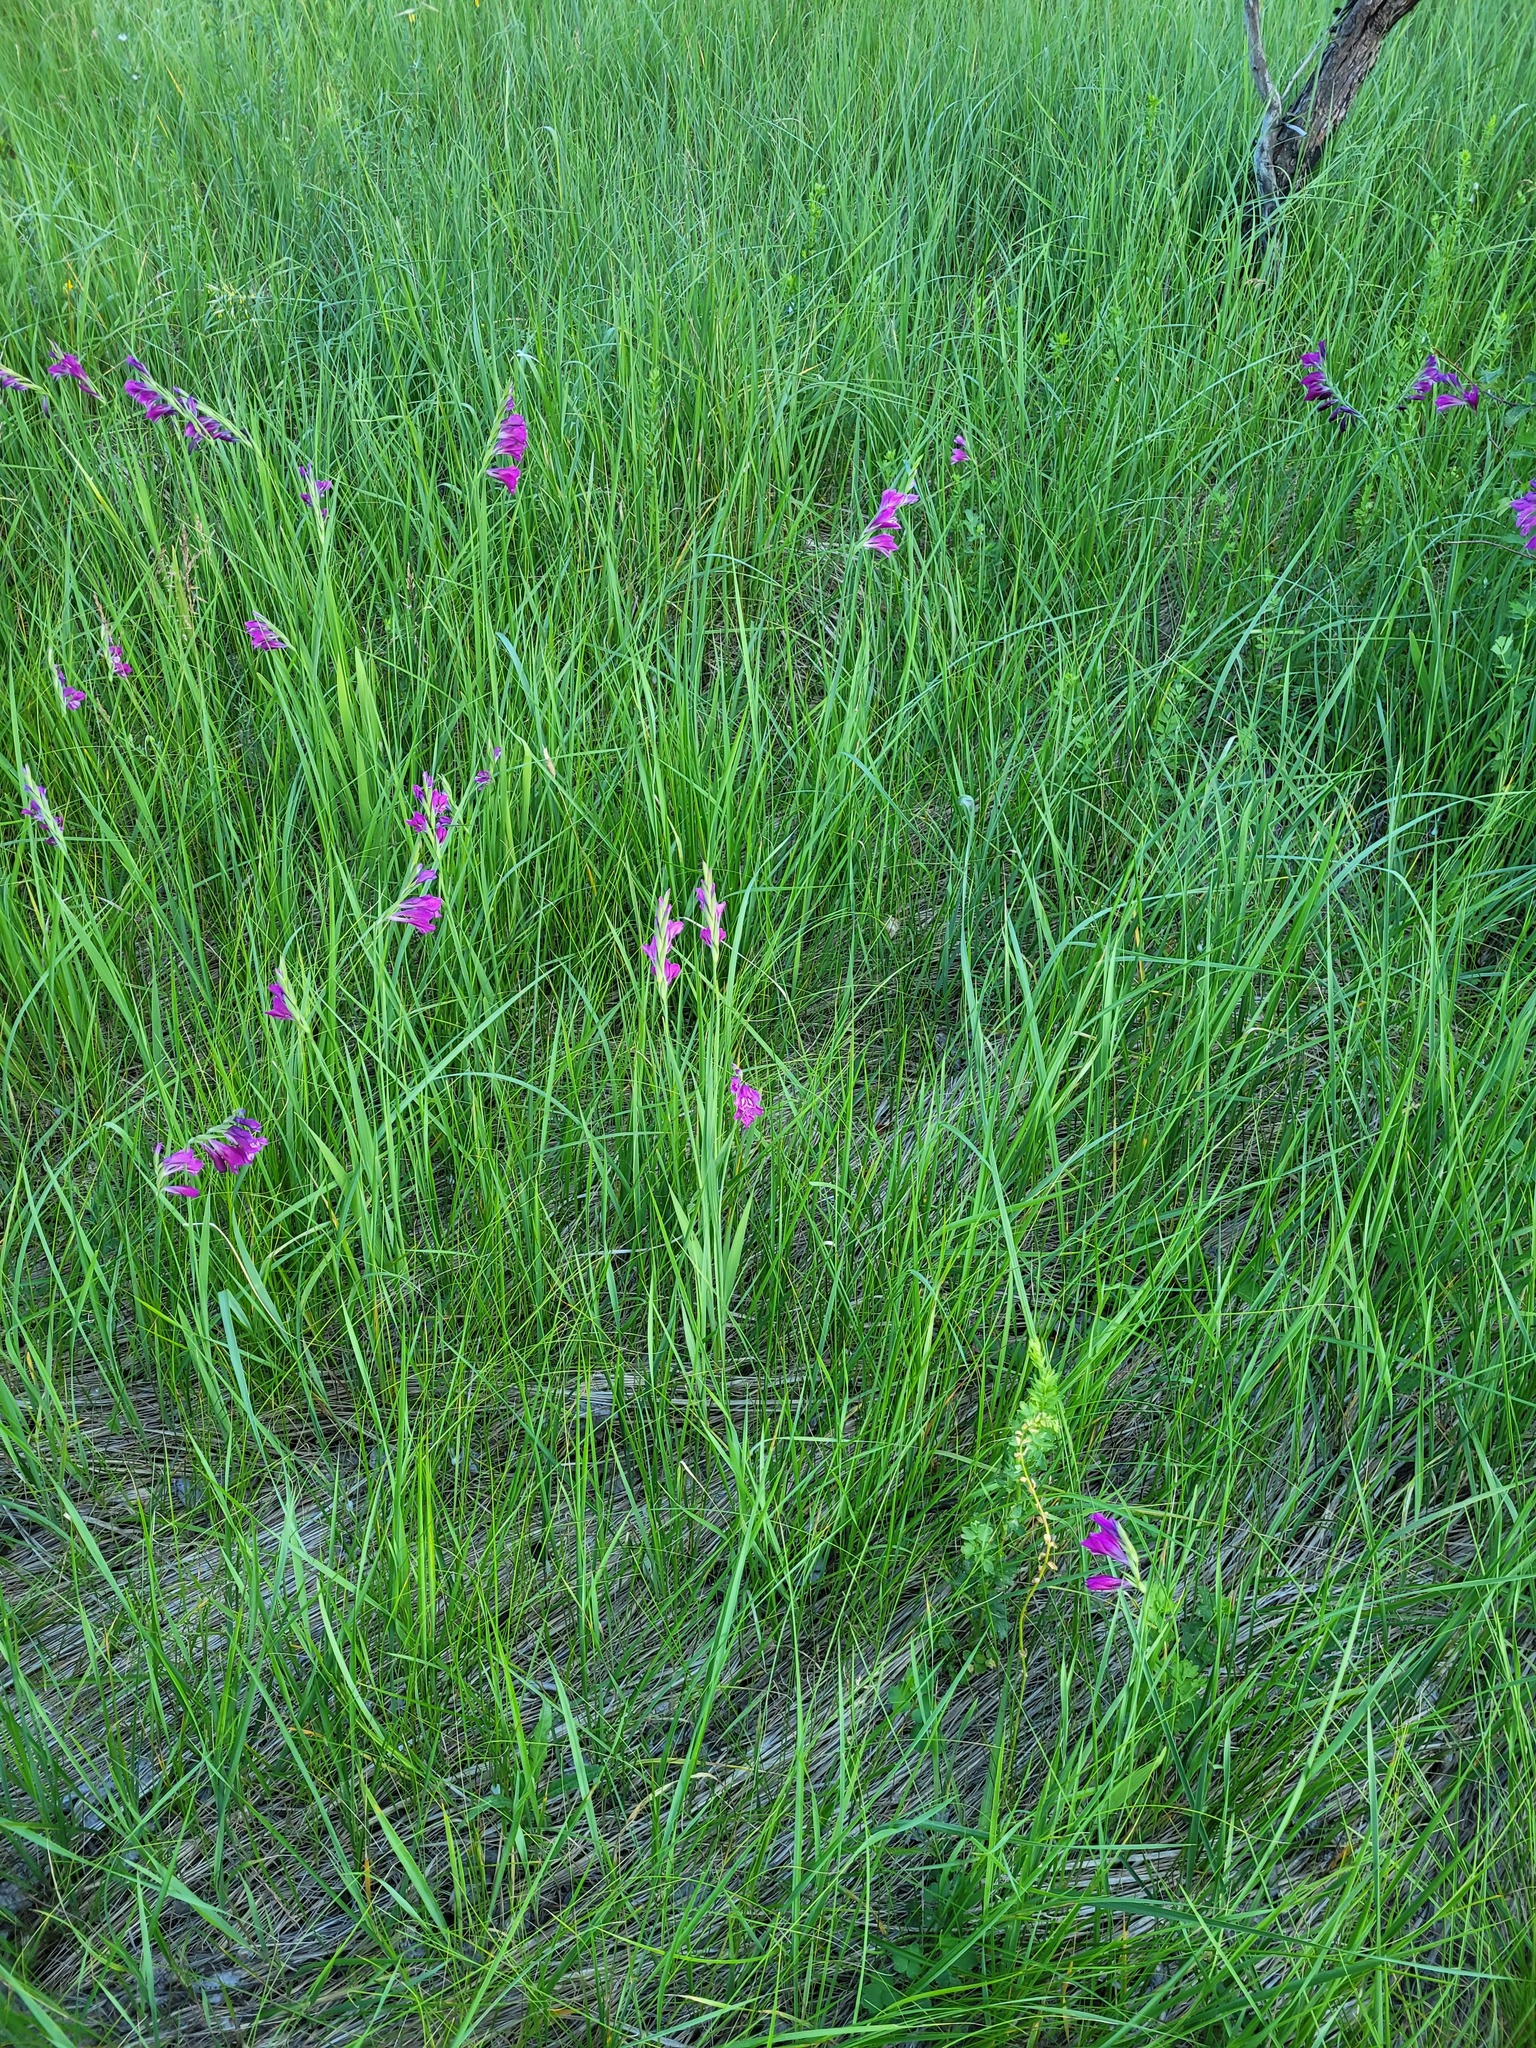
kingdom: Plantae
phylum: Tracheophyta
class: Liliopsida
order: Asparagales
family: Iridaceae
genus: Gladiolus
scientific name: Gladiolus tenuis
